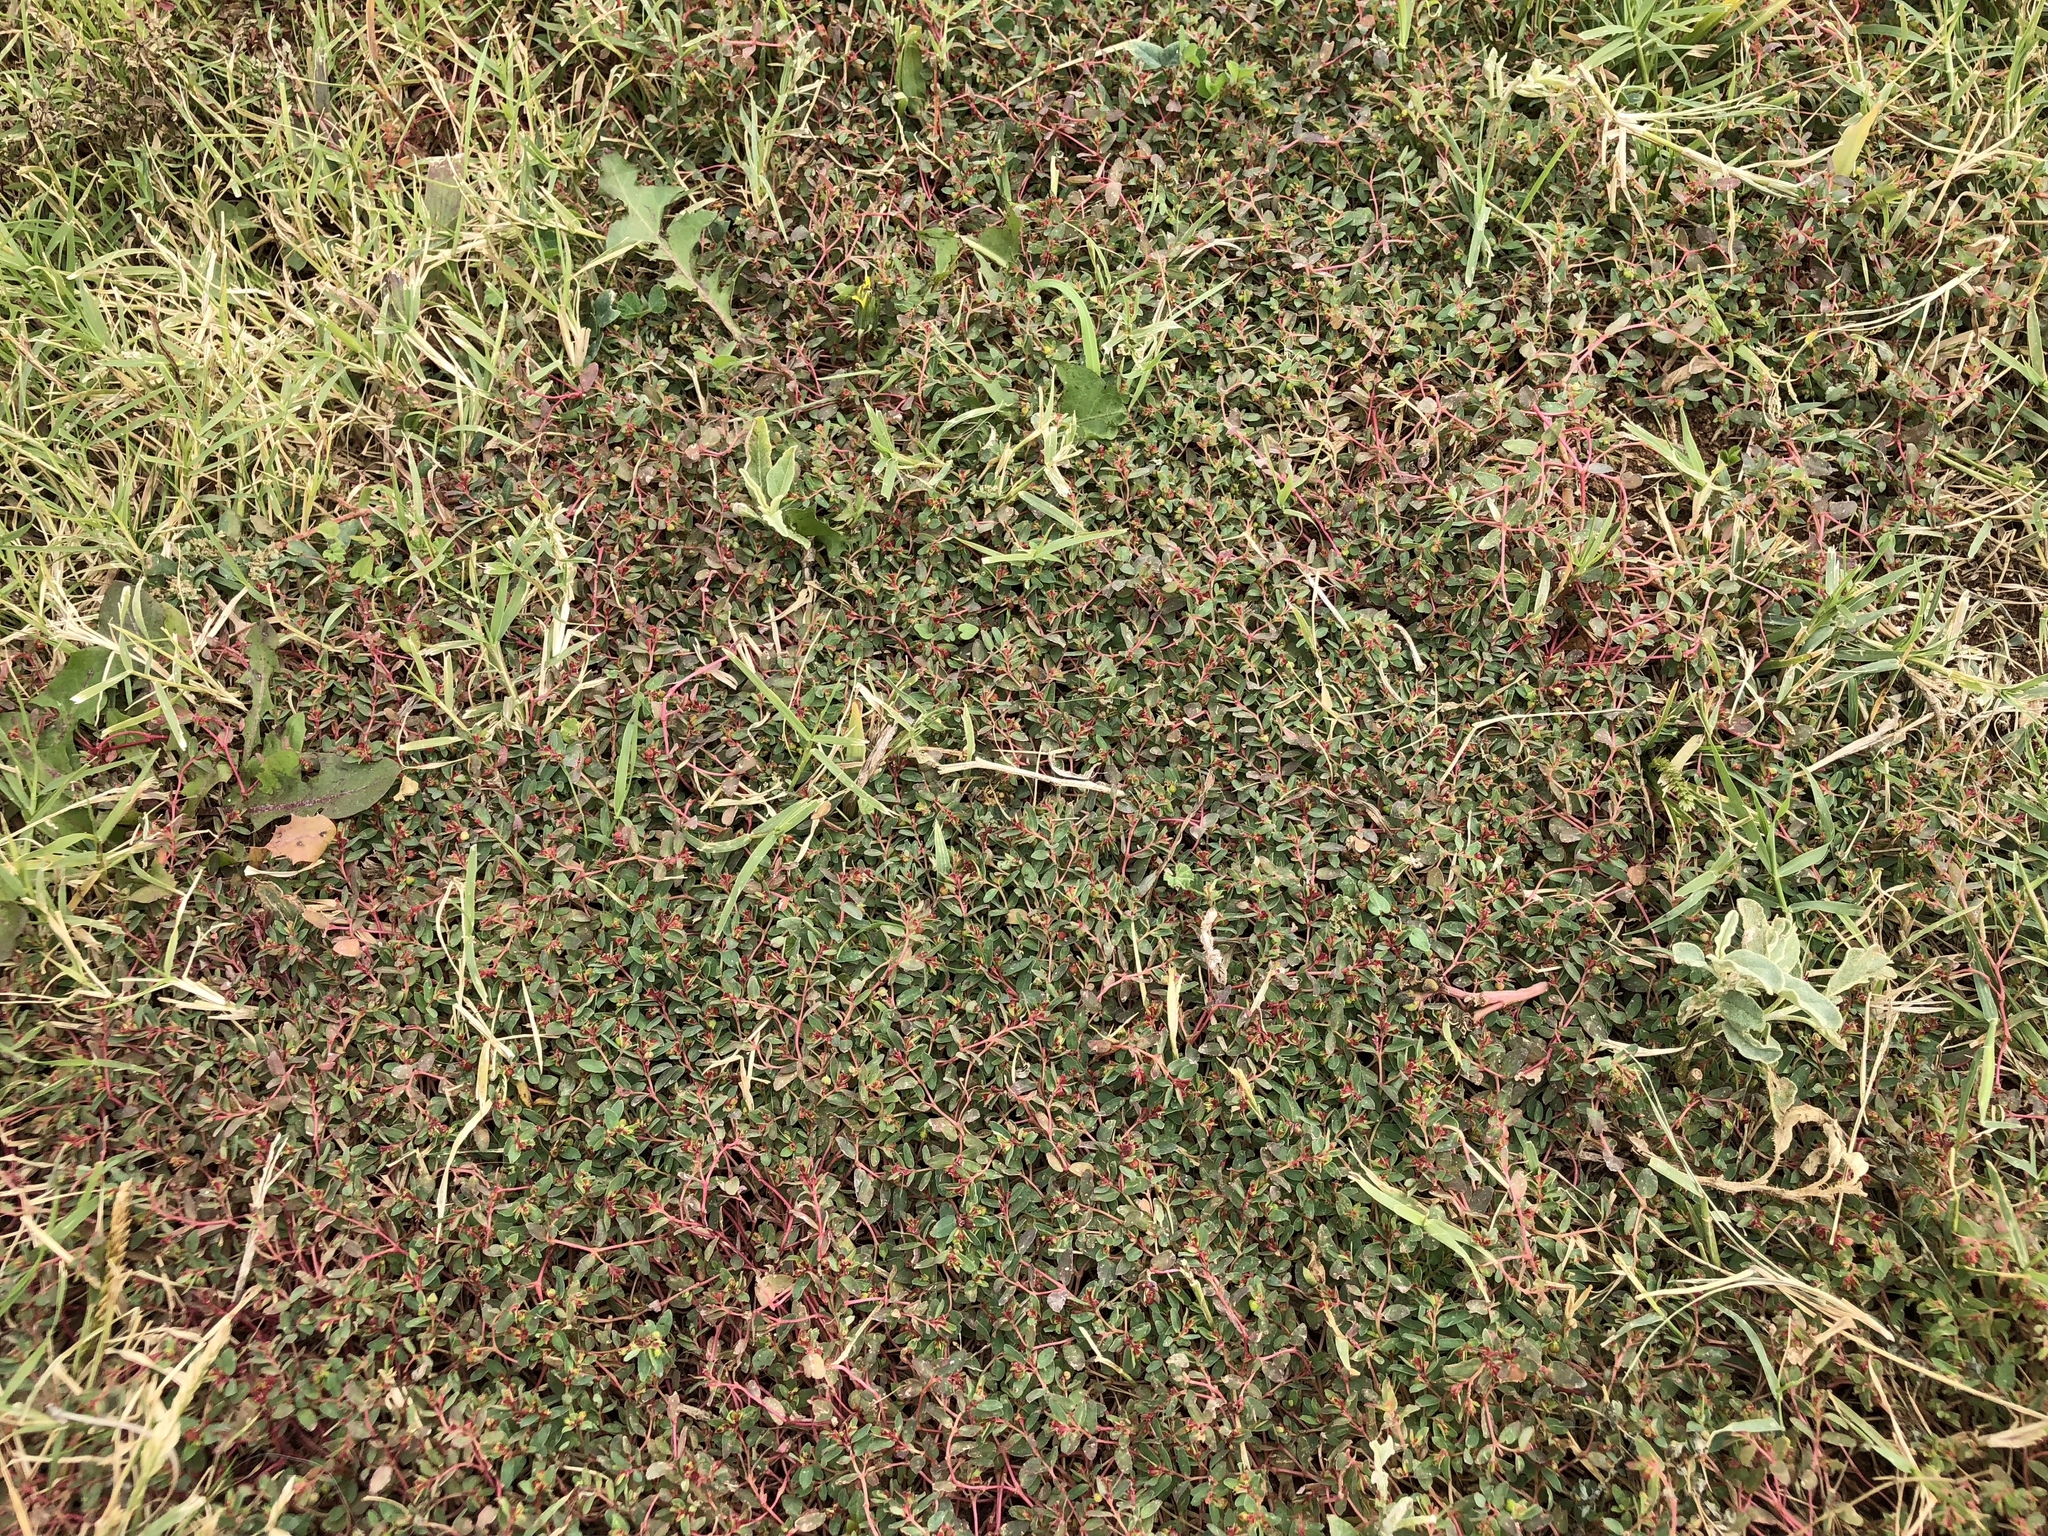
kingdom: Plantae
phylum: Tracheophyta
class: Magnoliopsida
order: Malpighiales
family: Euphorbiaceae
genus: Euphorbia
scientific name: Euphorbia vermiculata
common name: Hairy spurge
